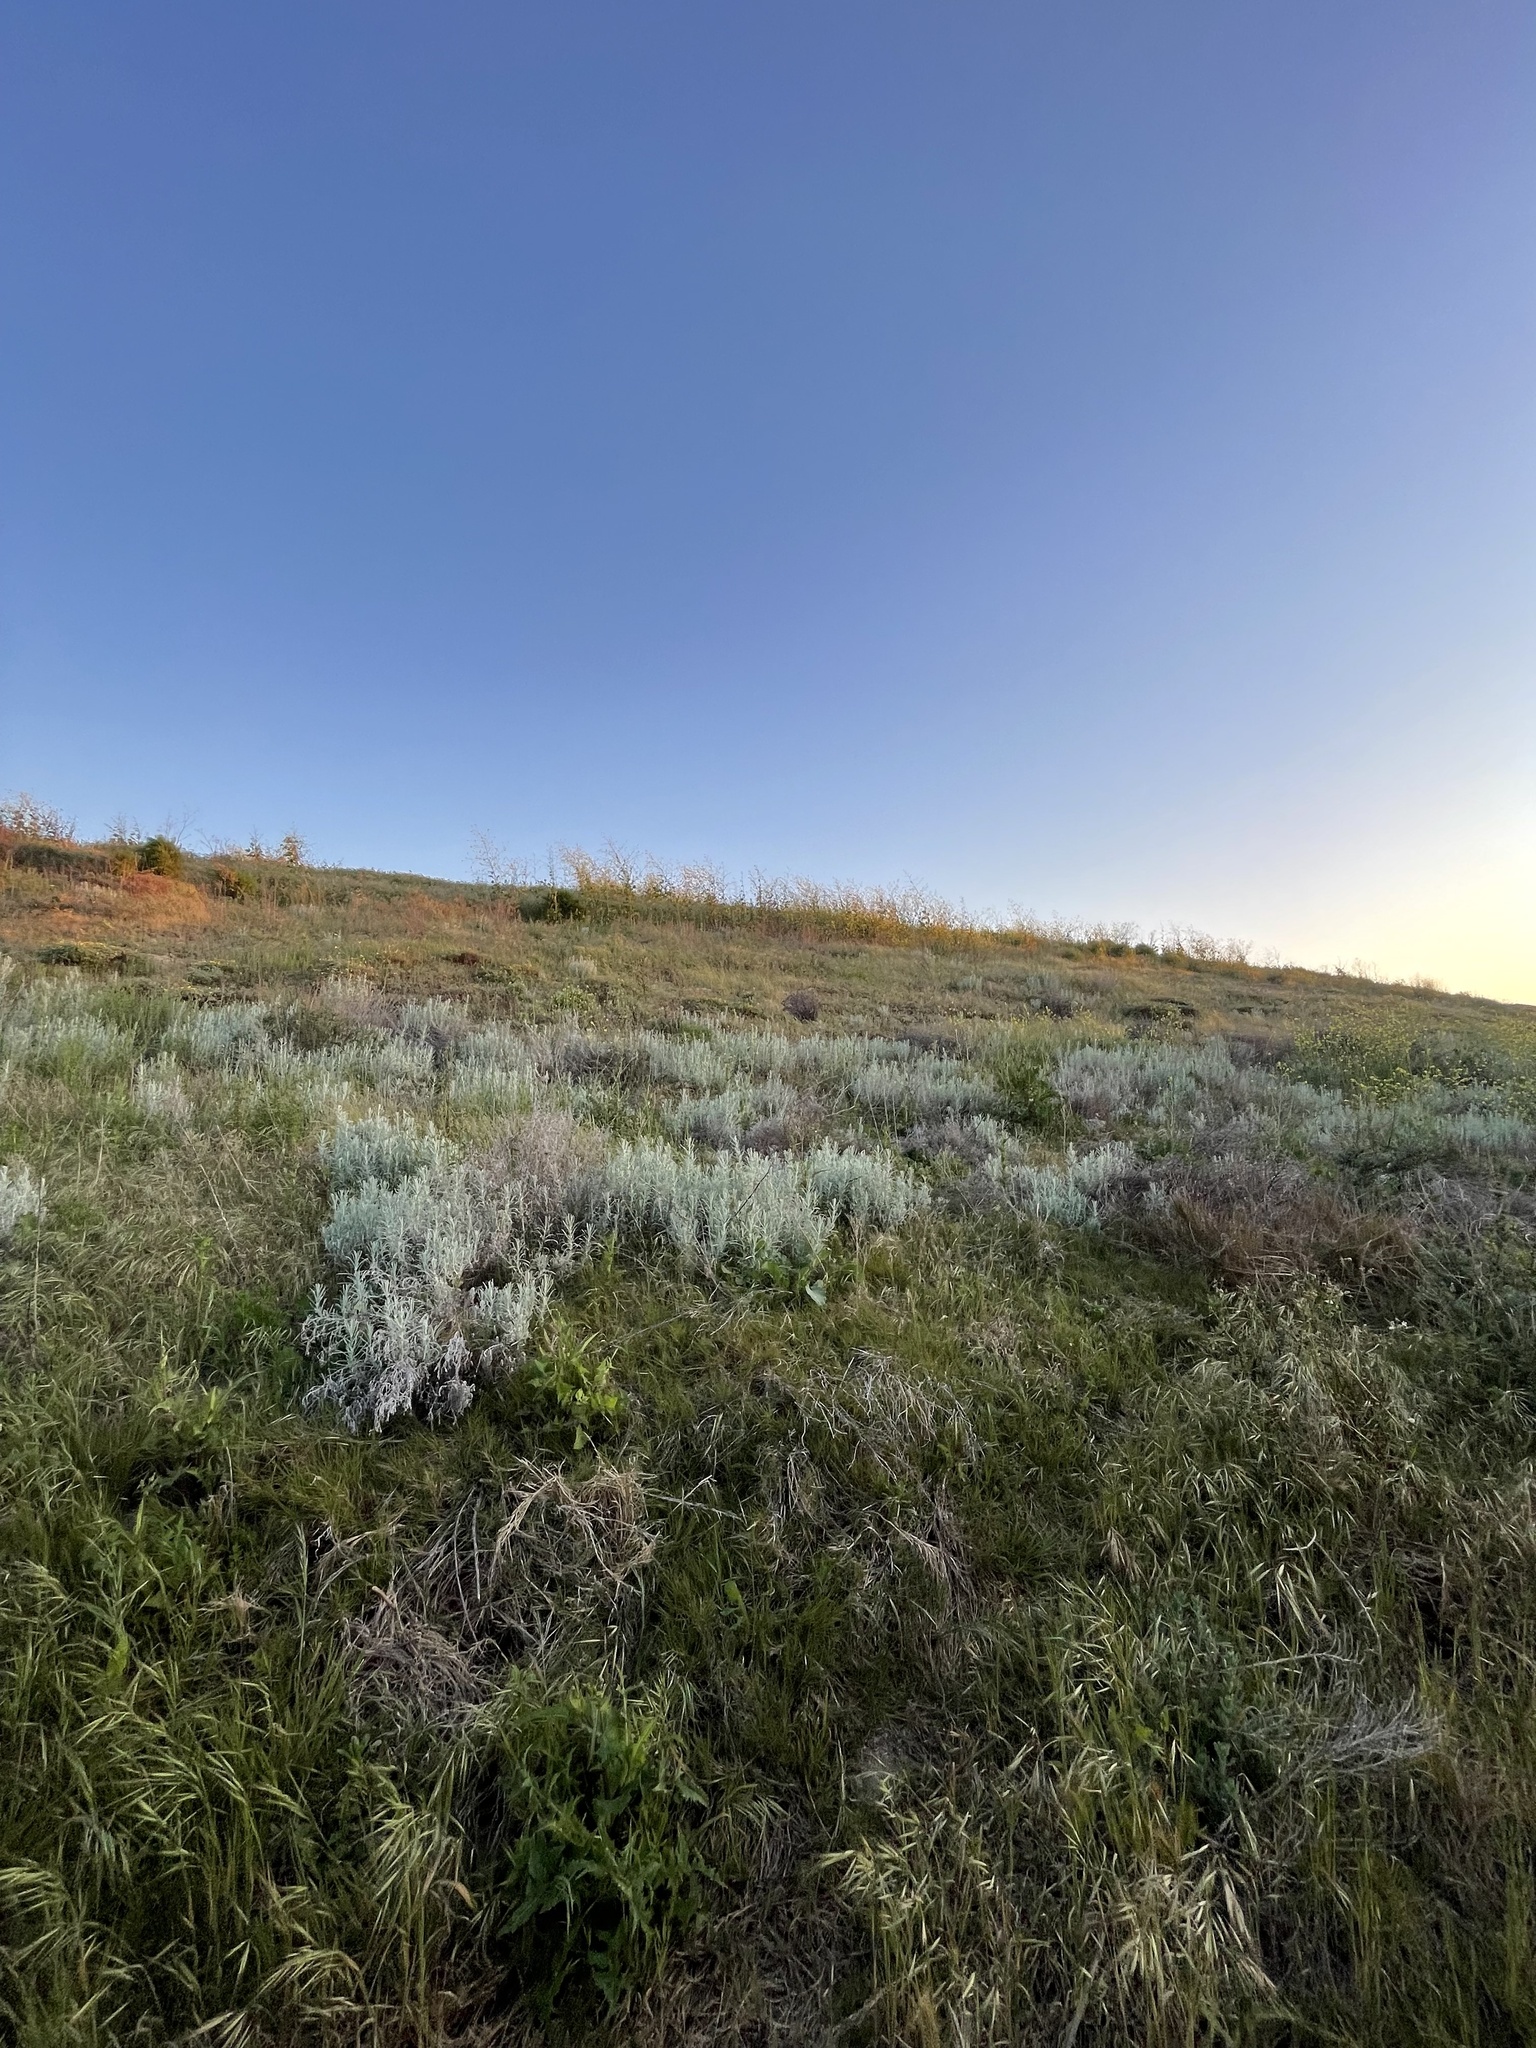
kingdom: Plantae
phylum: Tracheophyta
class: Magnoliopsida
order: Asterales
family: Asteraceae
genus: Pseudognaphalium
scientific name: Pseudognaphalium beneolens
